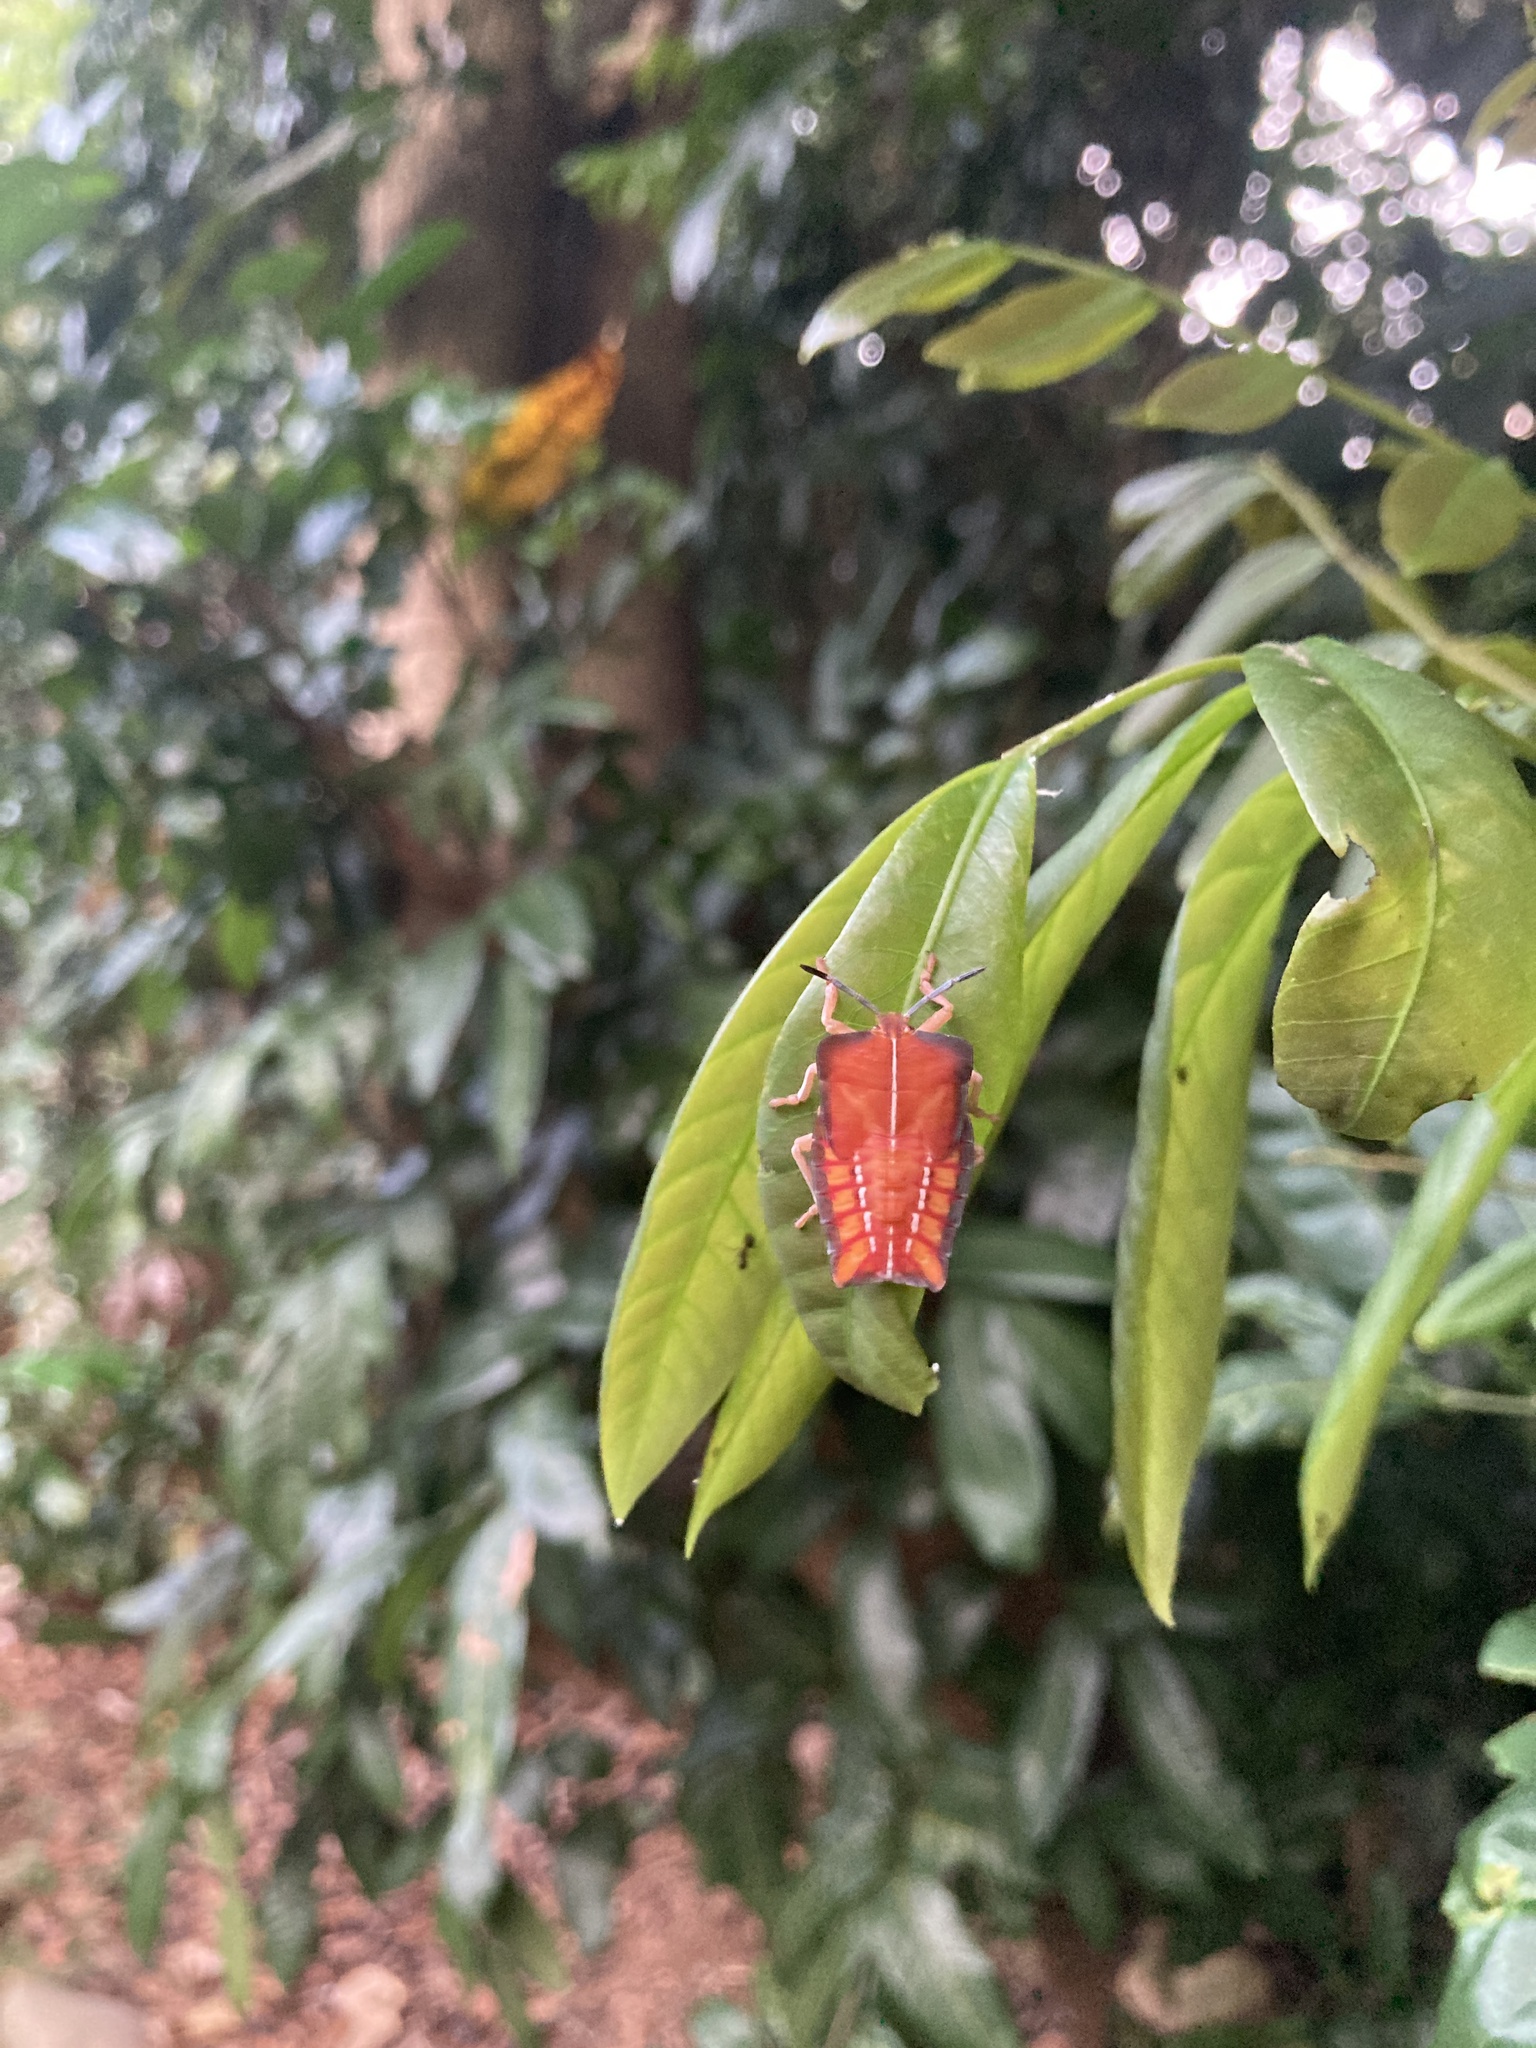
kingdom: Animalia
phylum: Arthropoda
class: Insecta
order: Hemiptera
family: Tessaratomidae
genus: Tessaratoma
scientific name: Tessaratoma papillosa
